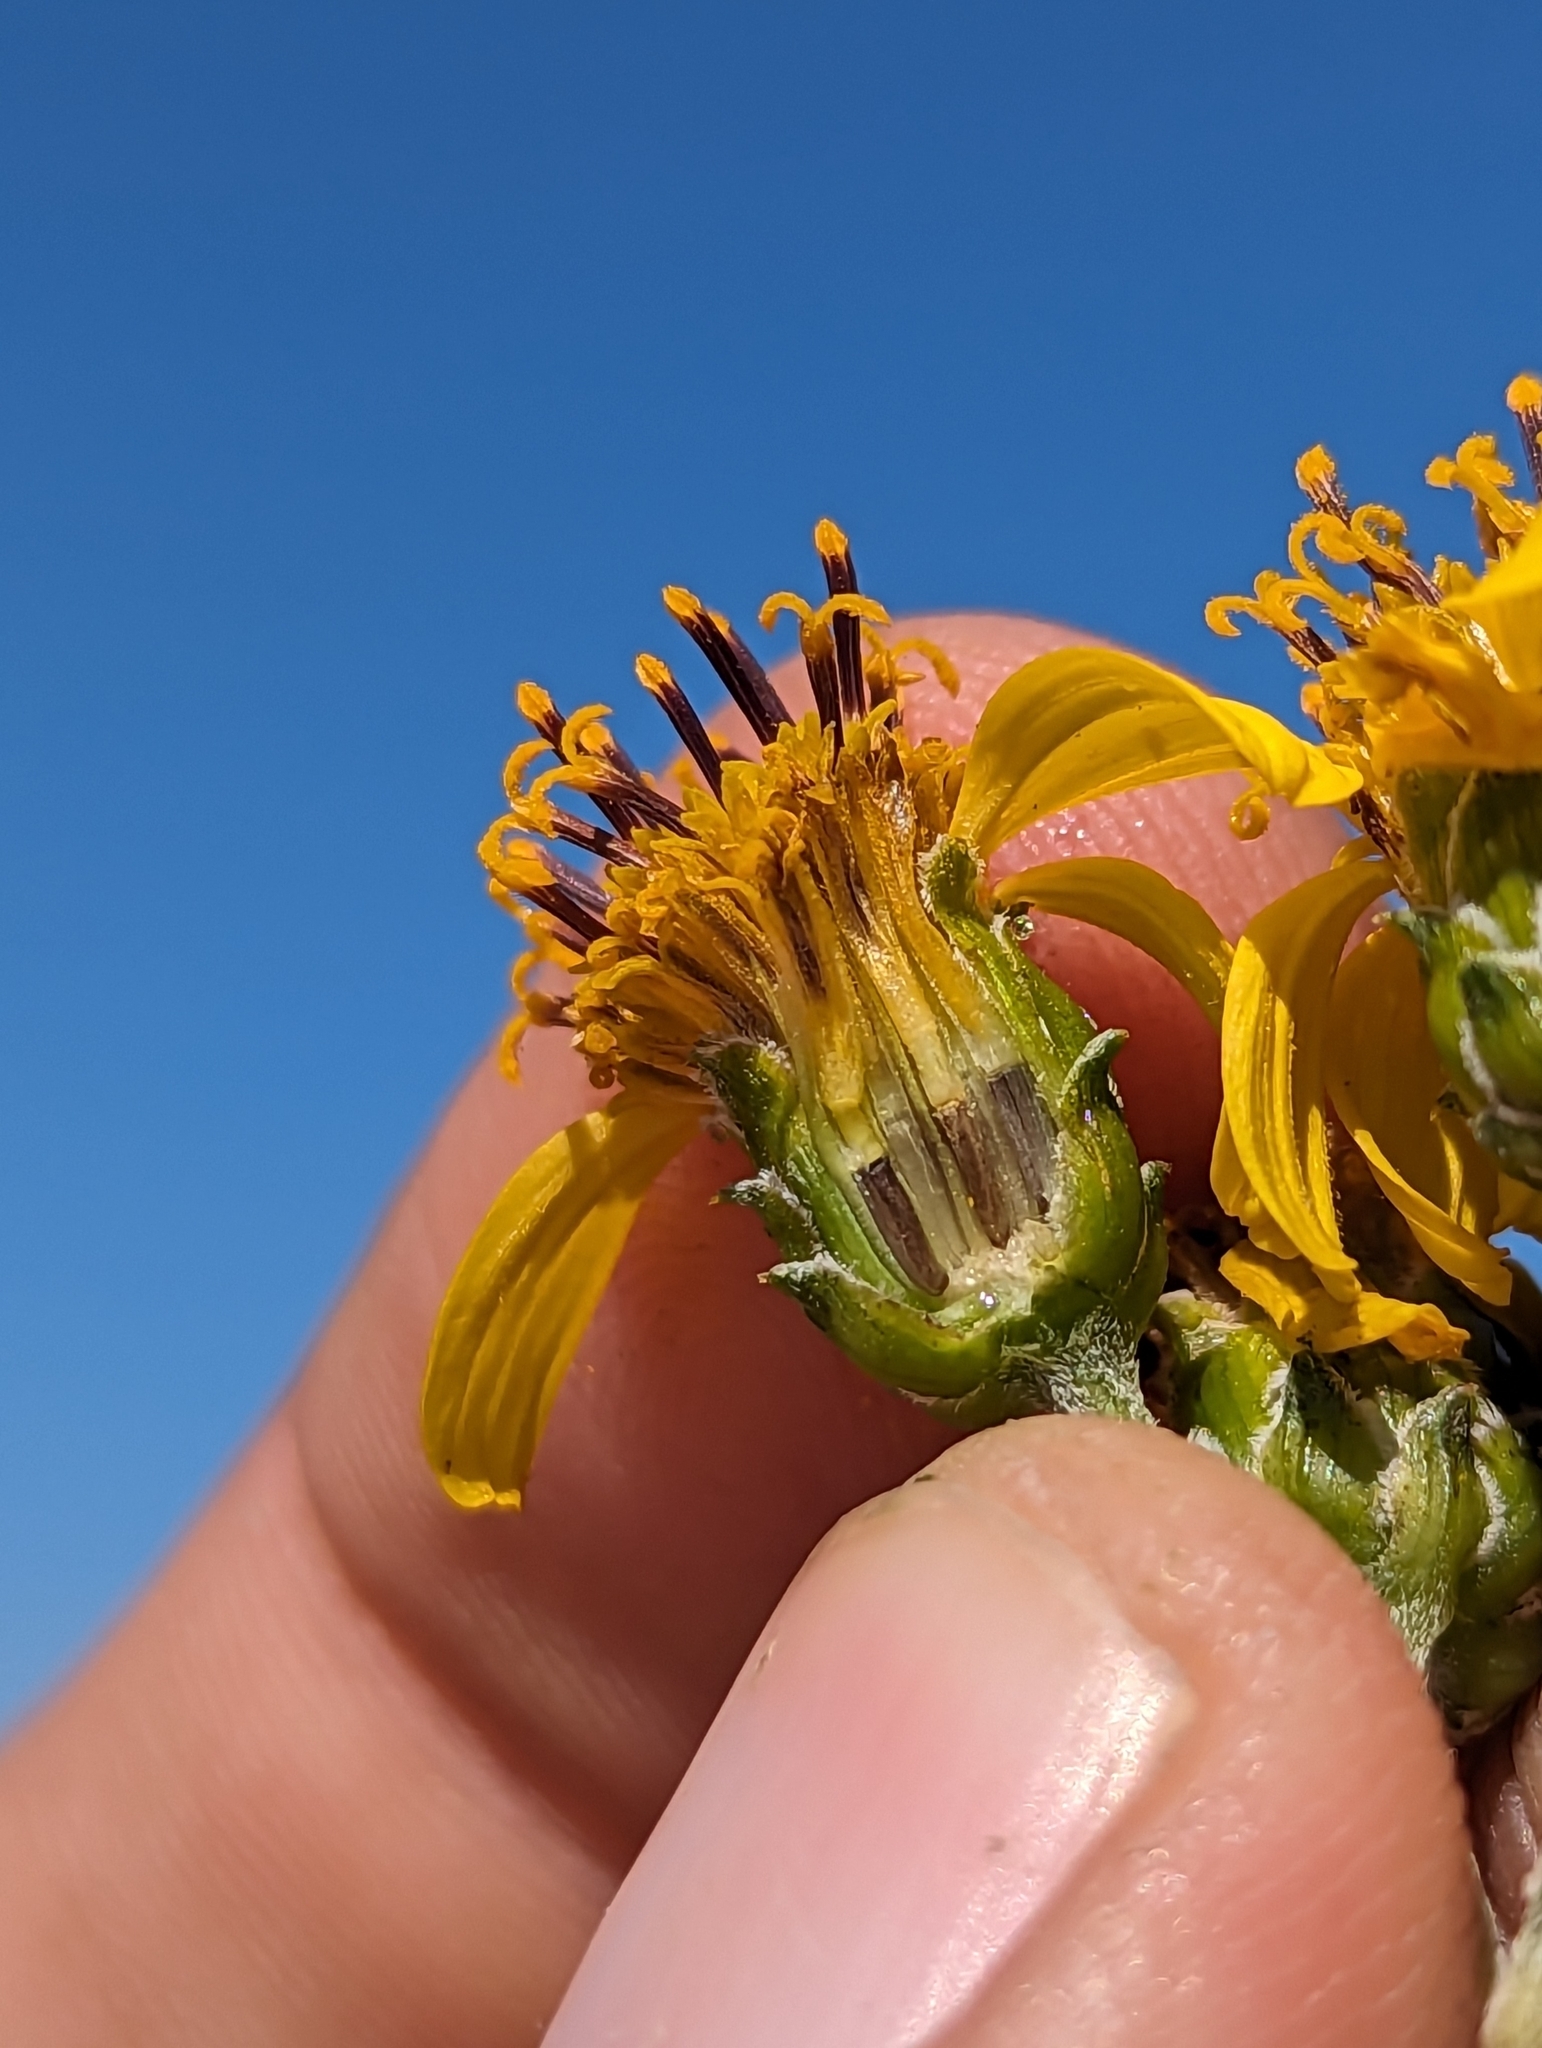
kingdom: Plantae
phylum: Tracheophyta
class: Magnoliopsida
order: Asterales
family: Asteraceae
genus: Aldama
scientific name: Aldama purisimae
